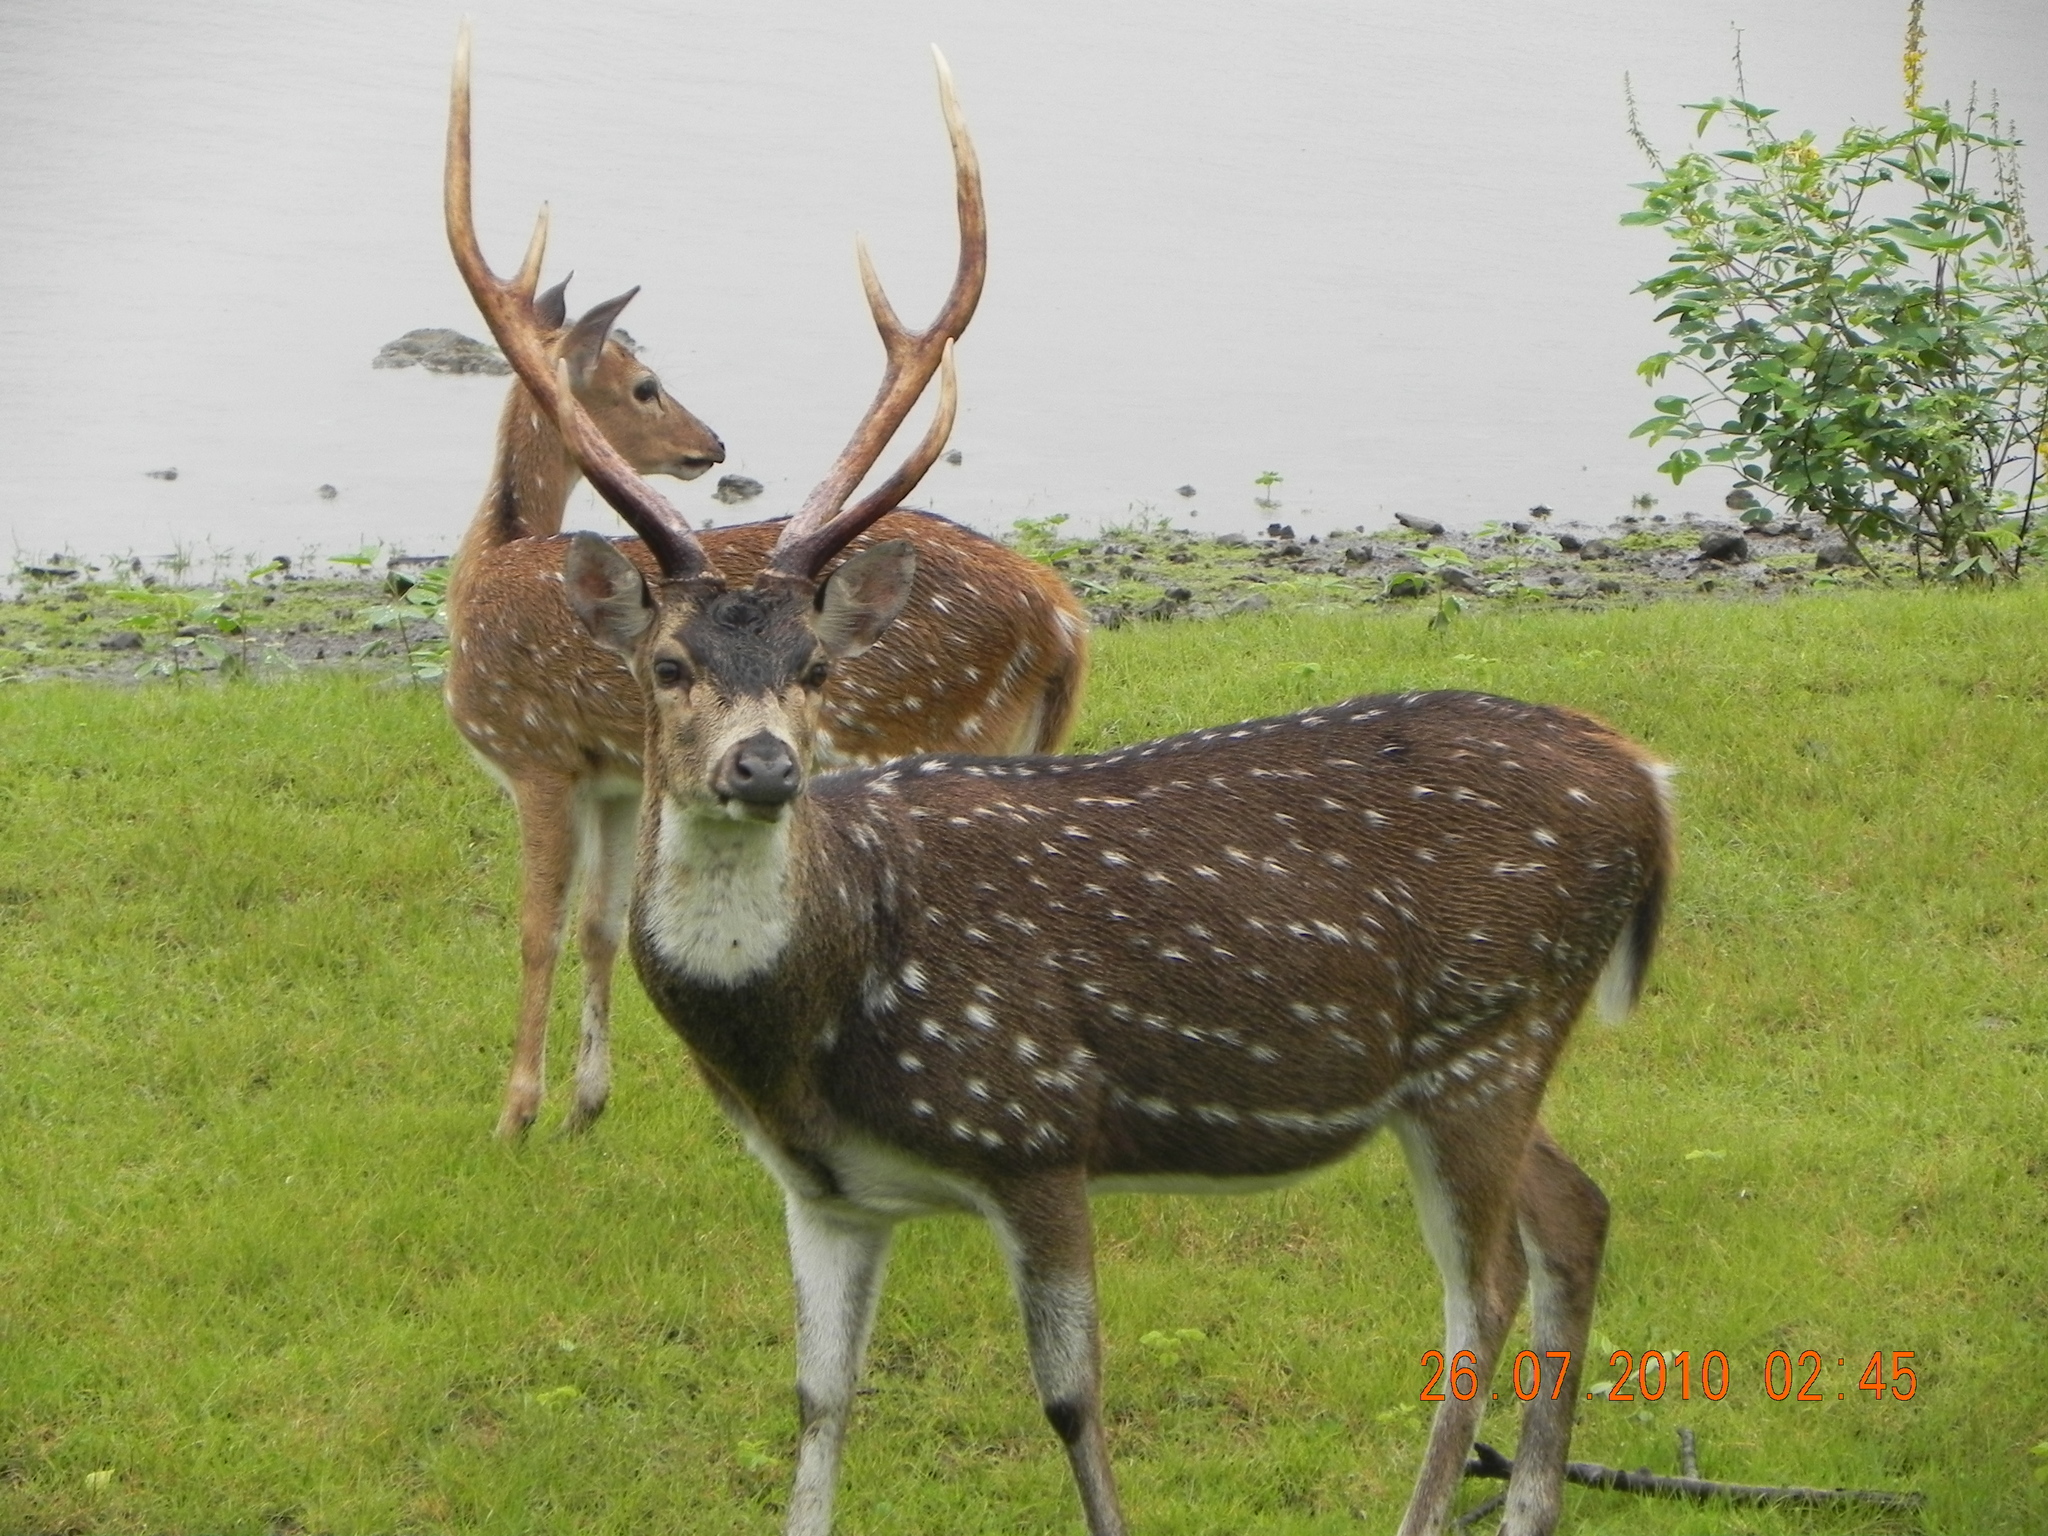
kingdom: Animalia
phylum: Chordata
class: Mammalia
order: Artiodactyla
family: Cervidae
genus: Axis
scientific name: Axis axis
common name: Chital
